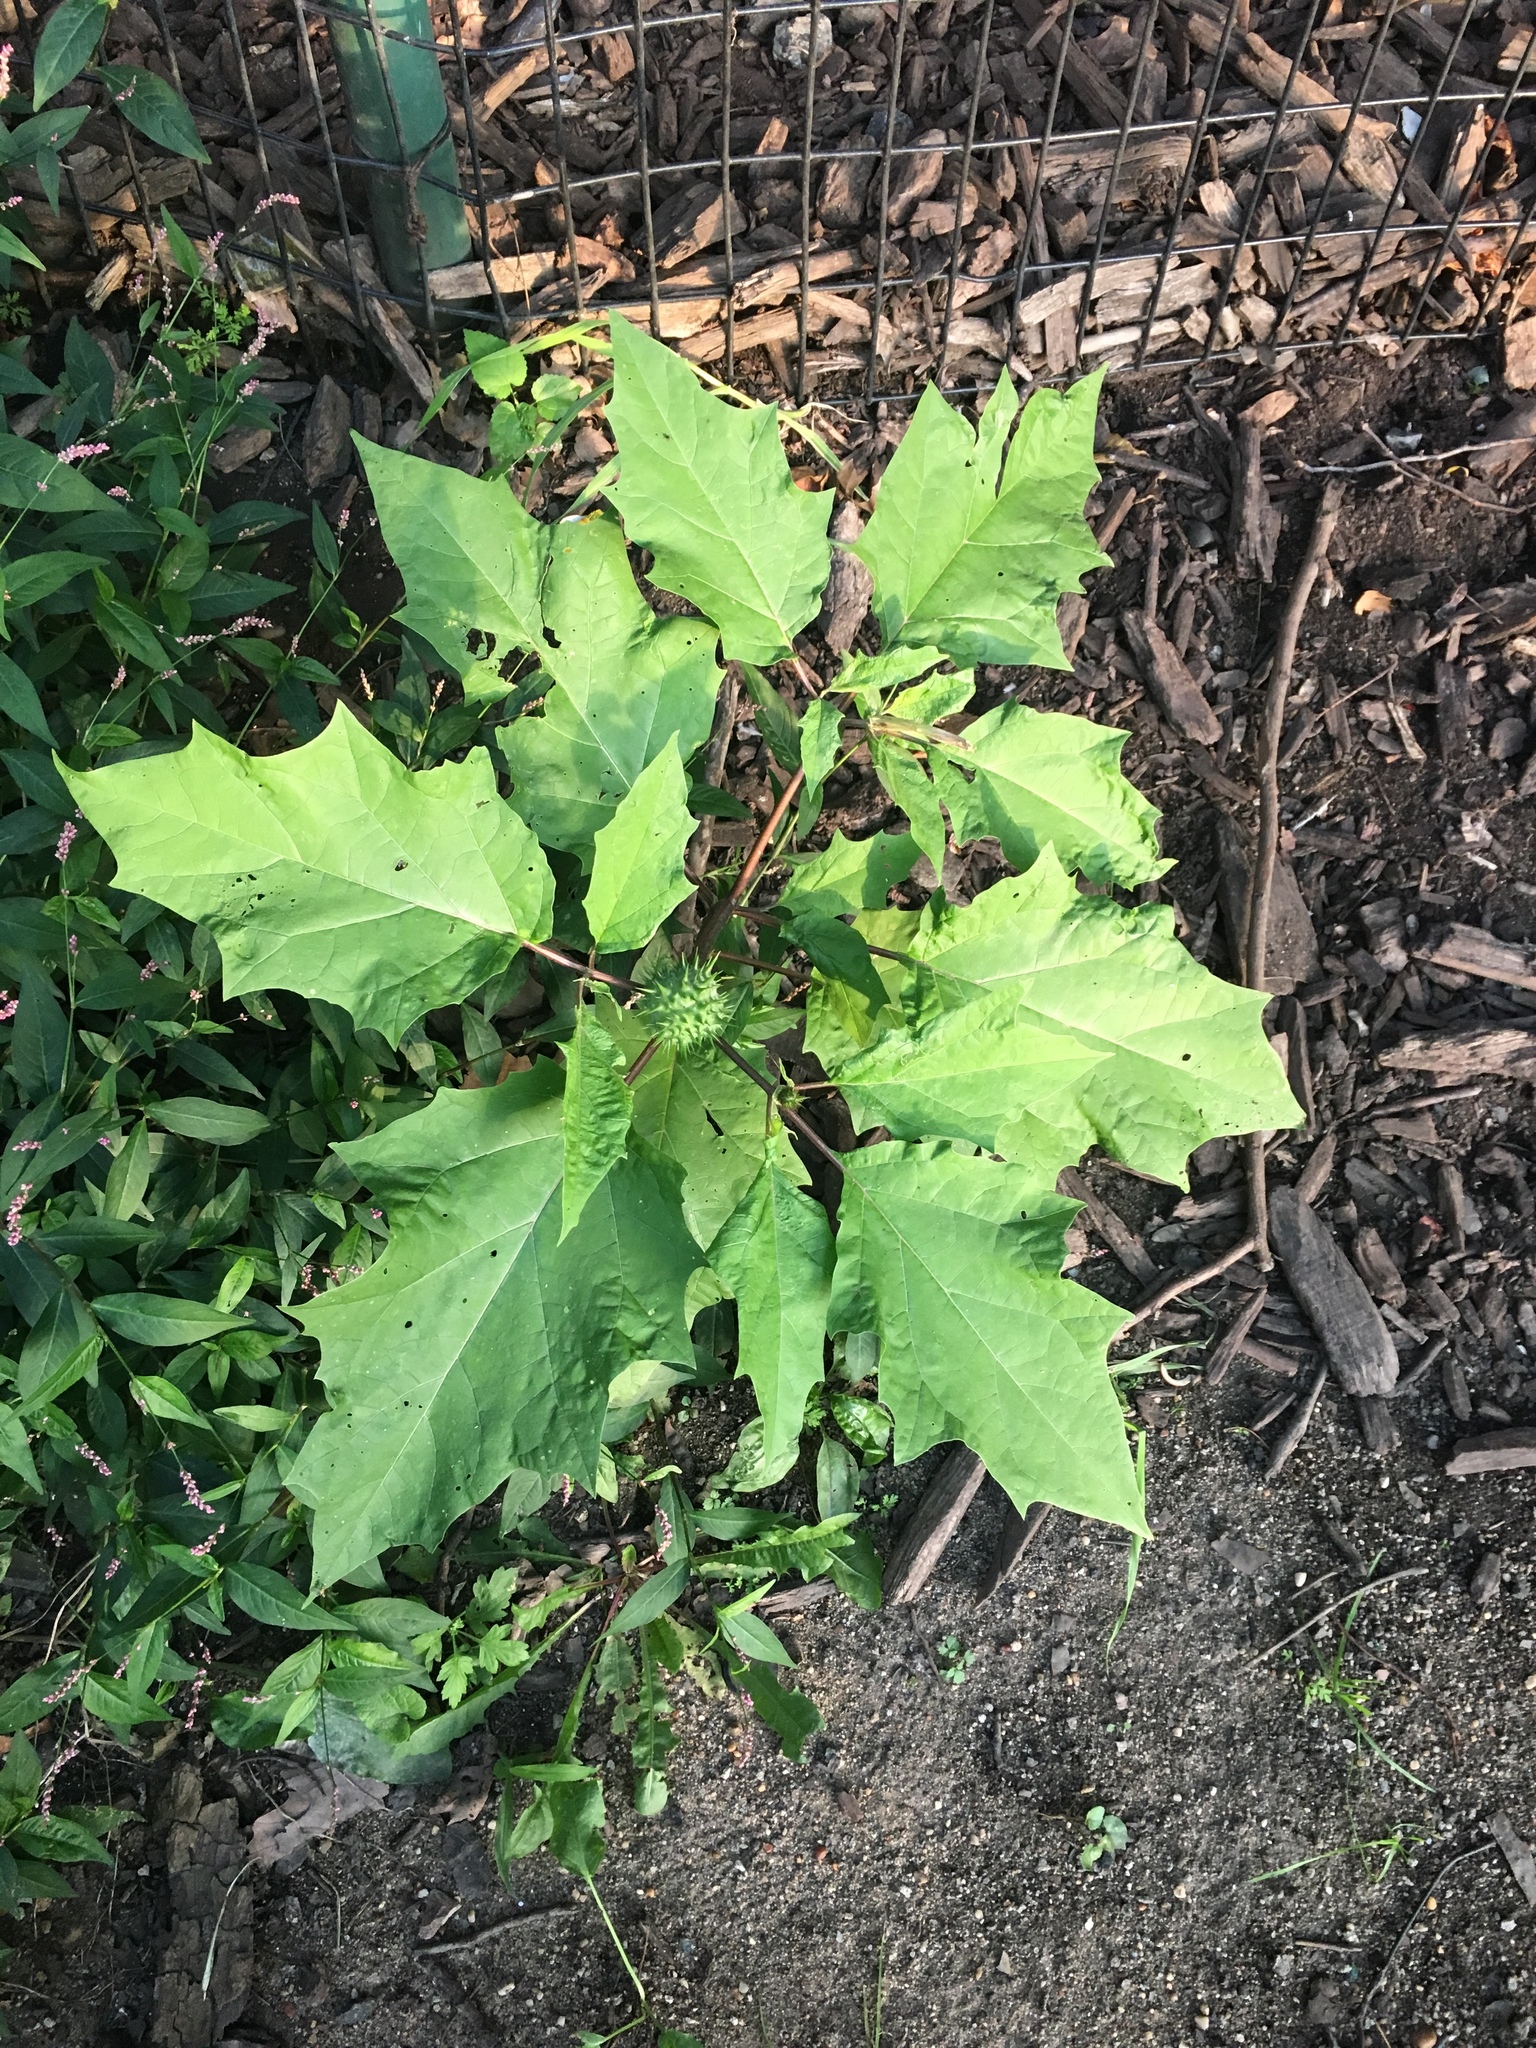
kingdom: Plantae
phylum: Tracheophyta
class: Magnoliopsida
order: Solanales
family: Solanaceae
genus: Datura
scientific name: Datura stramonium
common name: Thorn-apple
